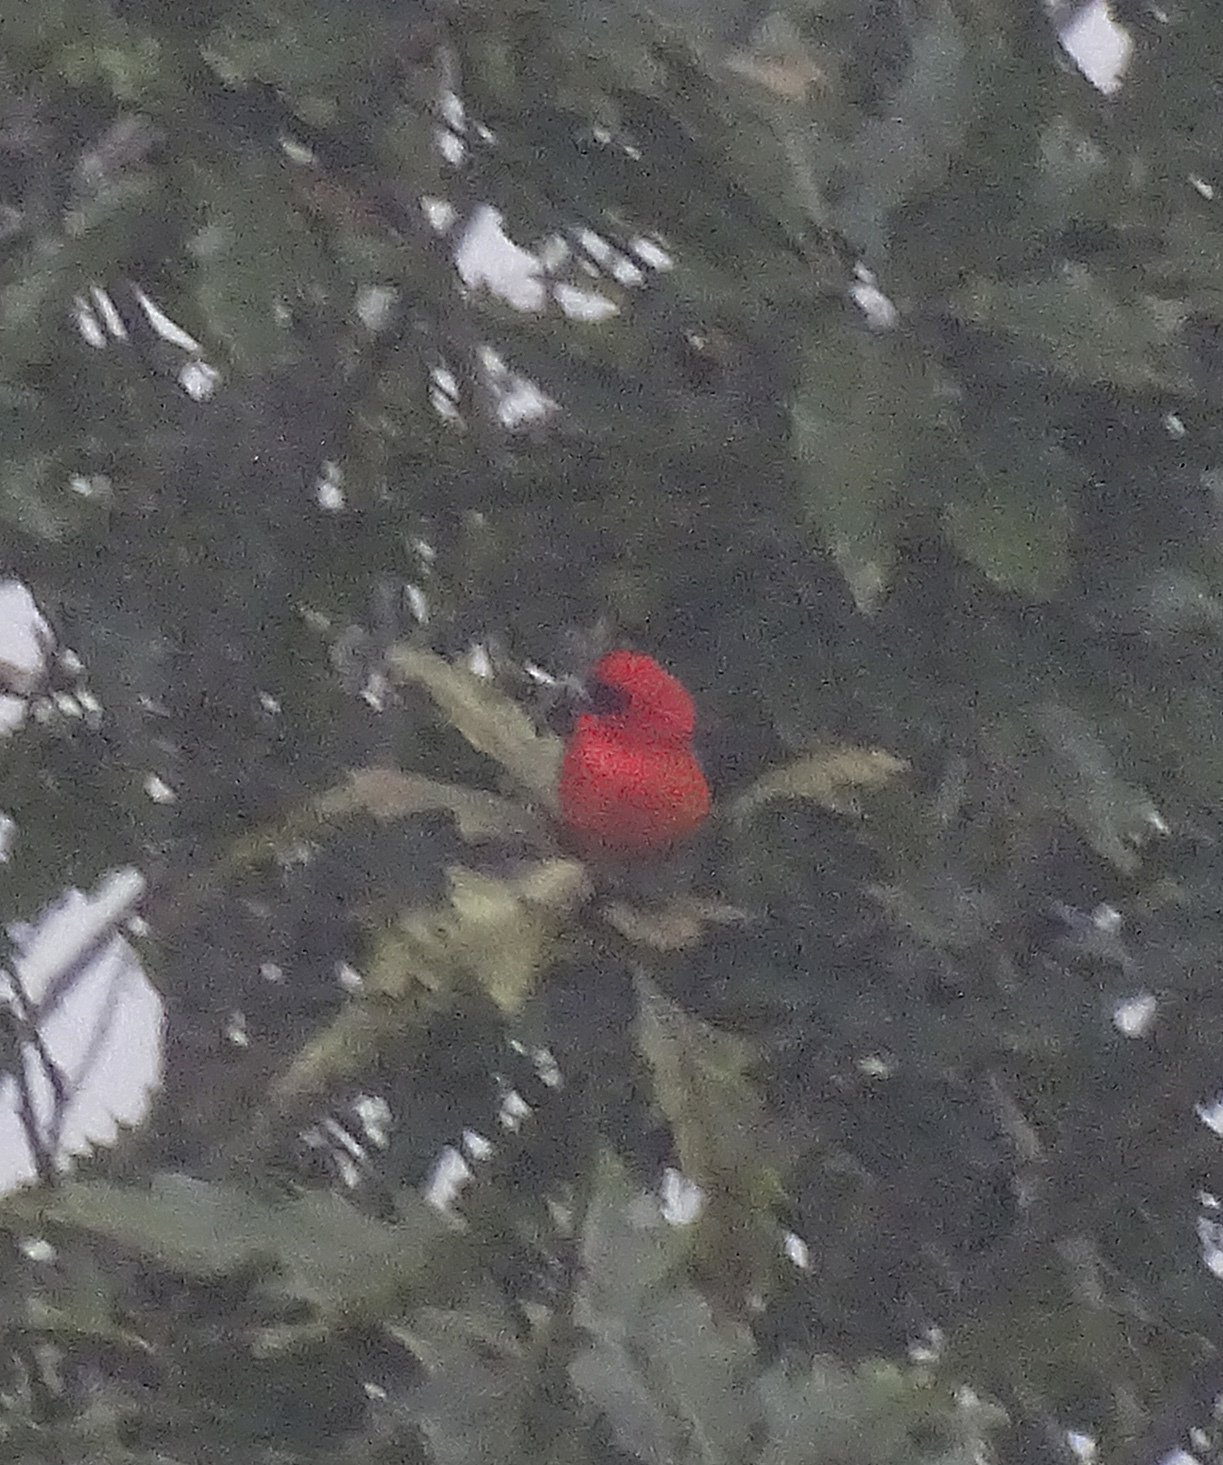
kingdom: Animalia
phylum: Chordata
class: Aves
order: Passeriformes
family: Cardinalidae
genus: Piranga
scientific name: Piranga leucoptera
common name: White-winged tanager
